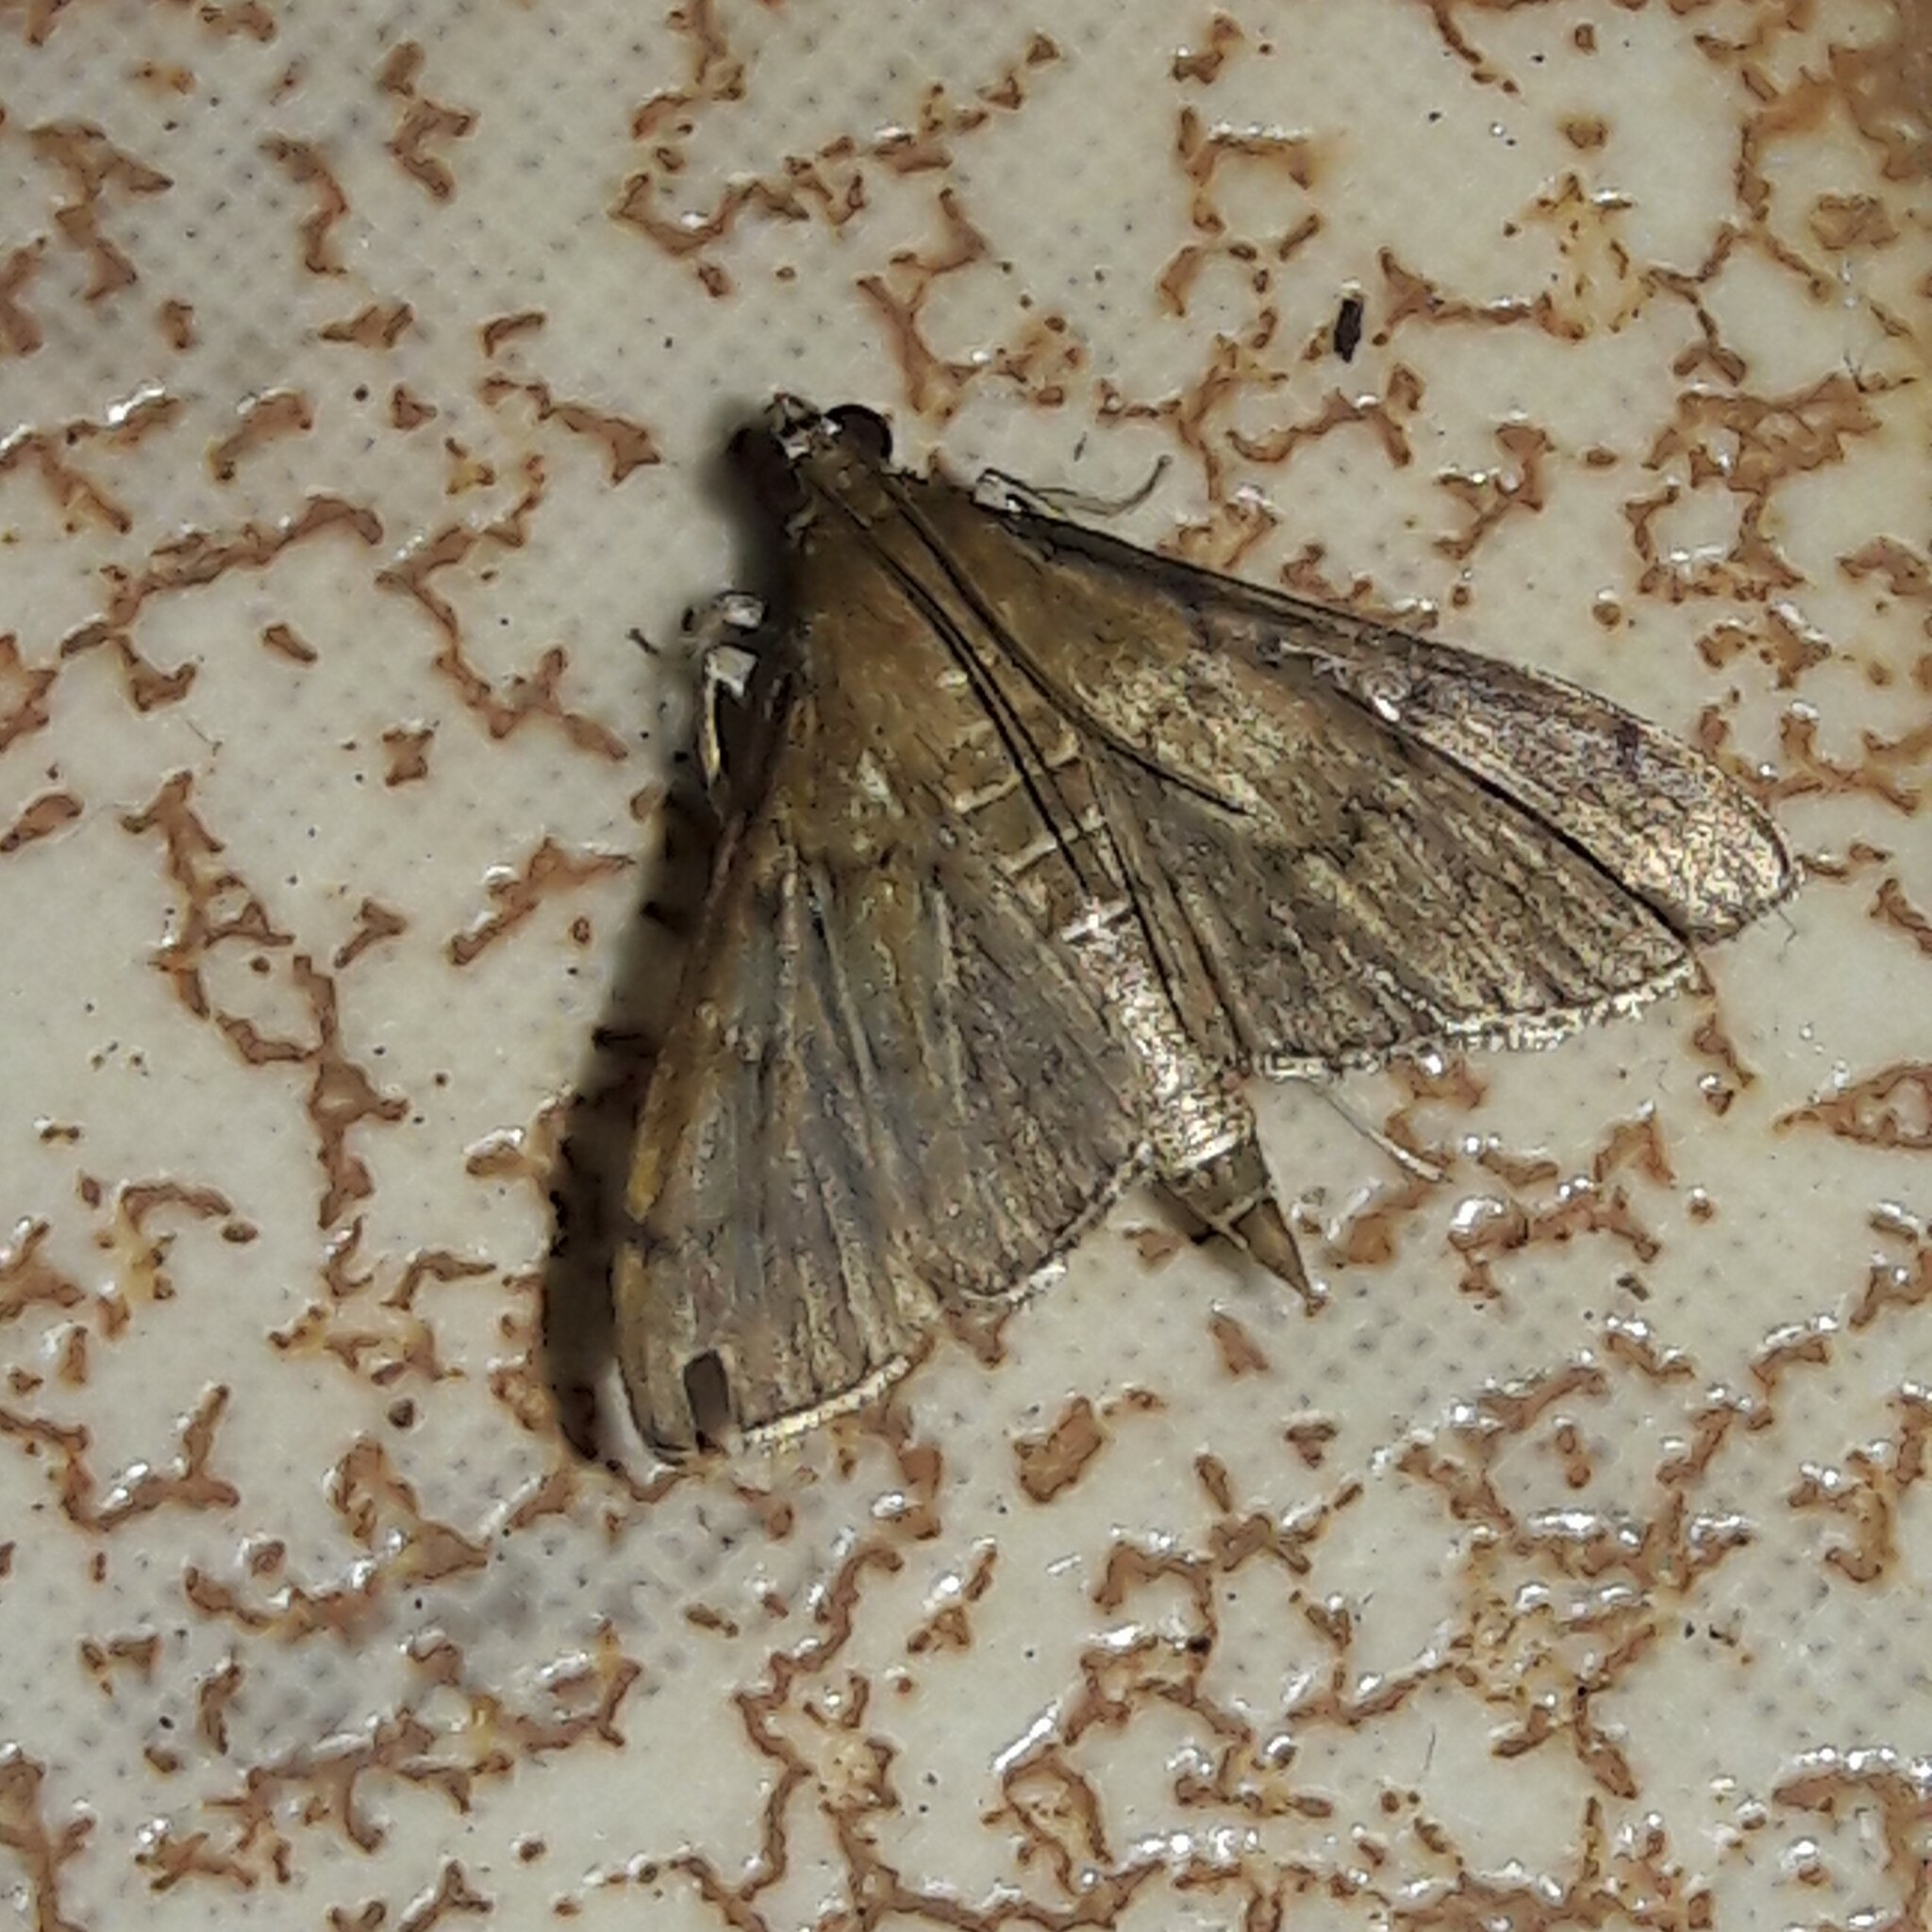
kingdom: Animalia
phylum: Arthropoda
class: Insecta
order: Lepidoptera
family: Crambidae
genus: Herpetogramma
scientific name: Herpetogramma phaeopteralis
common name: Dusky herpetogramma moth
